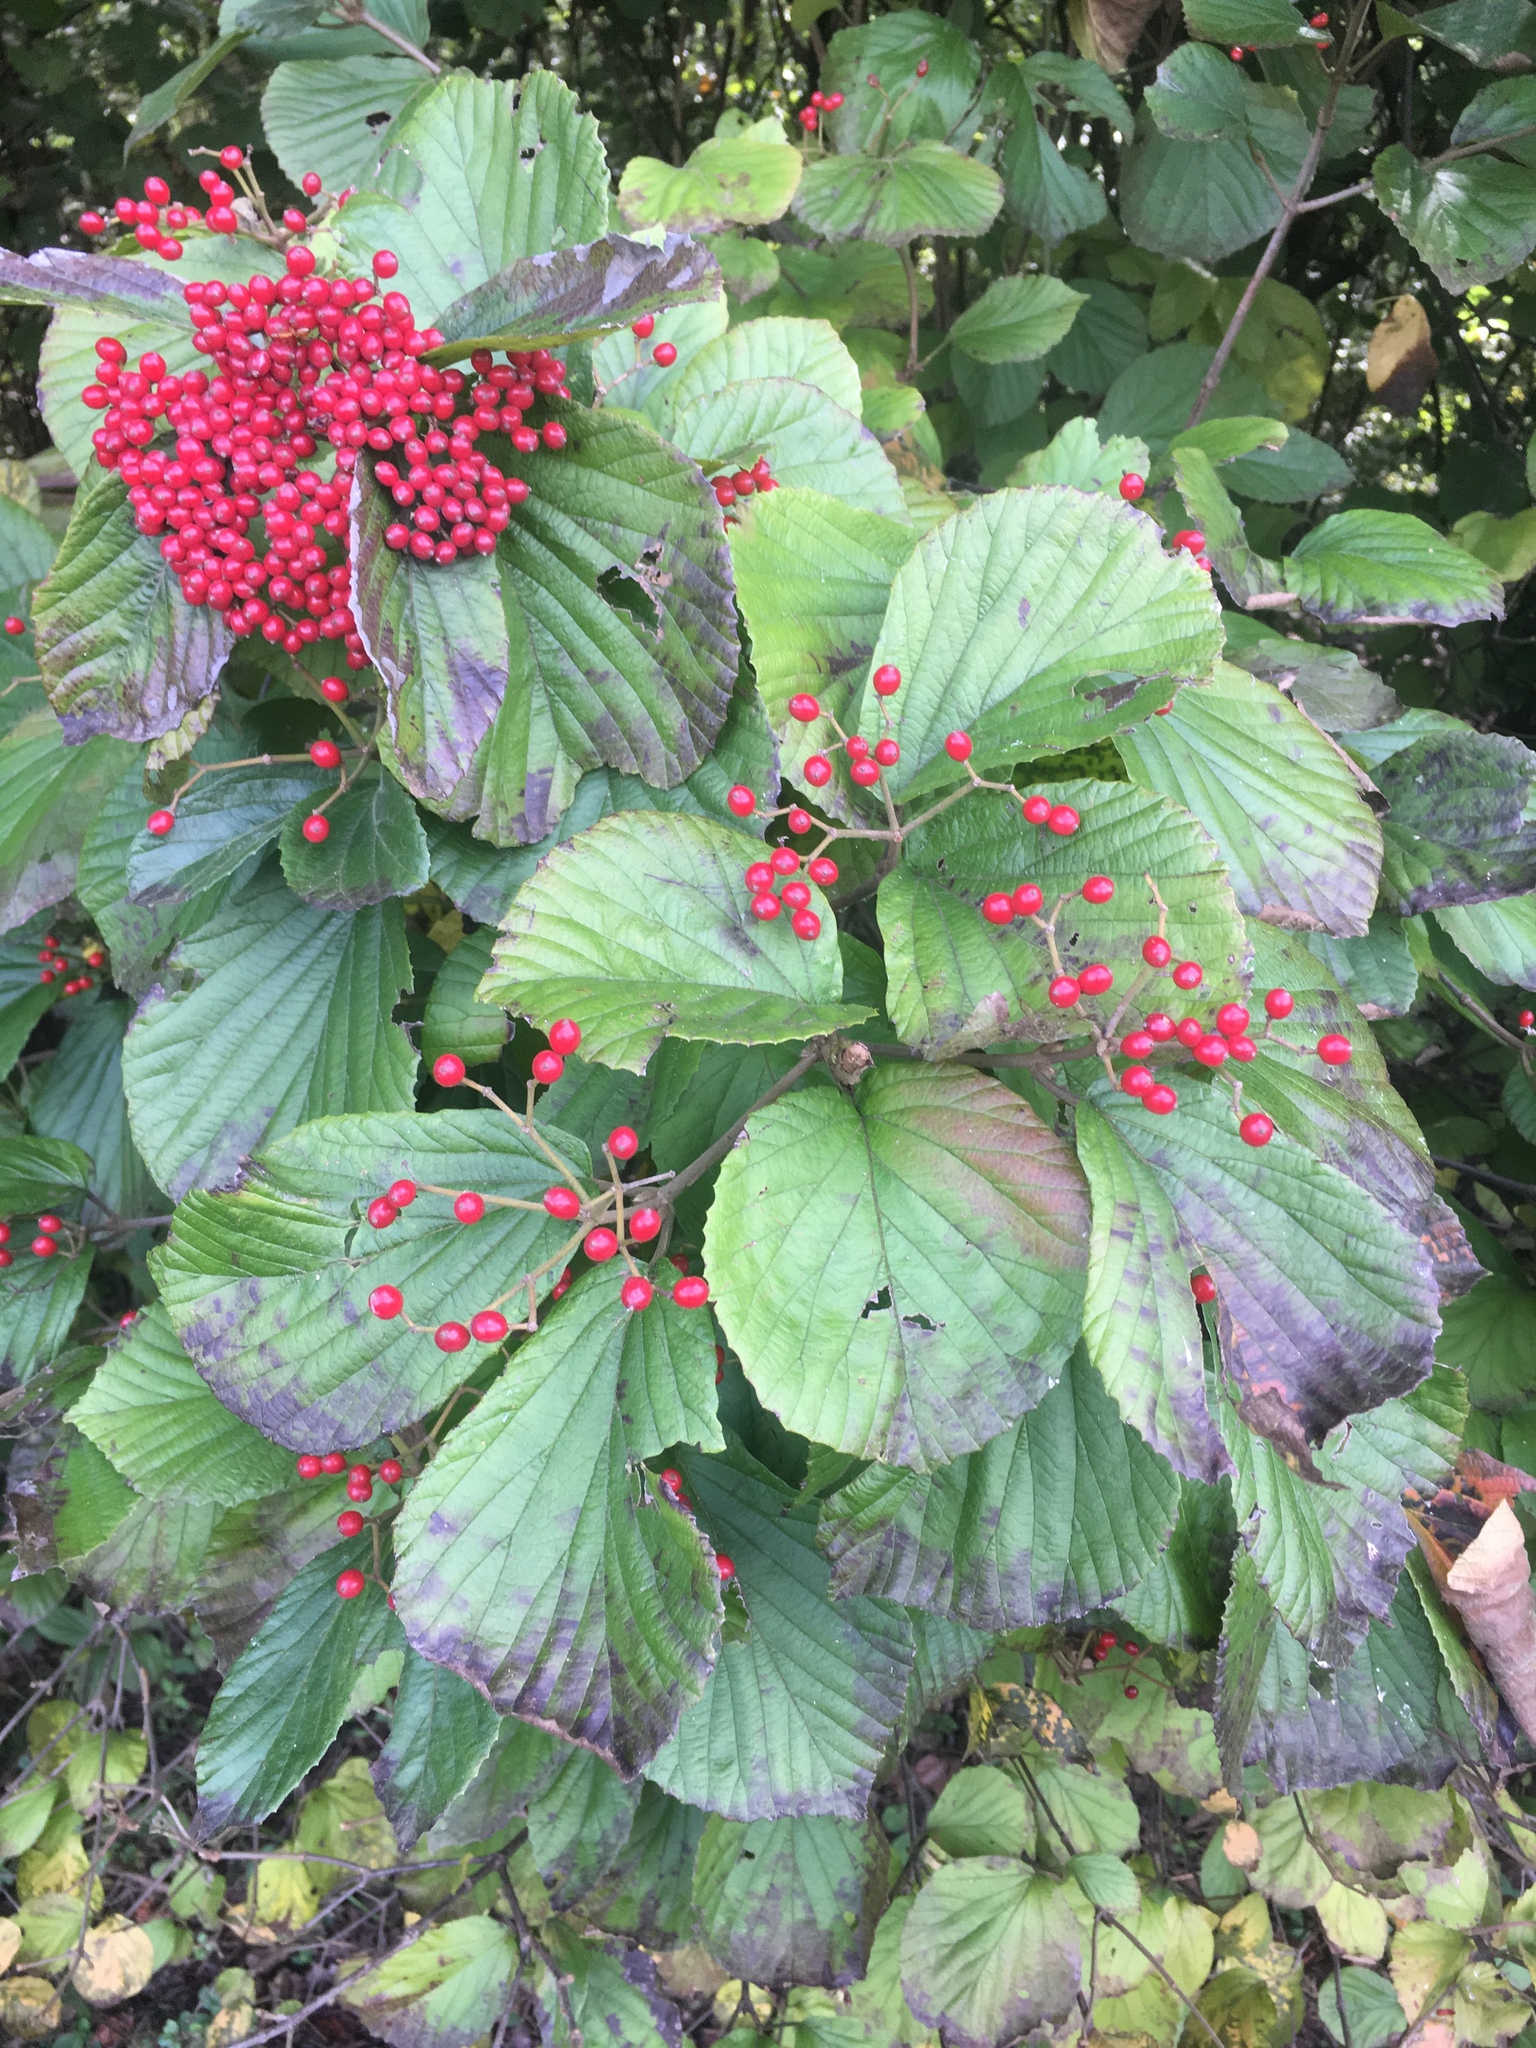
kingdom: Plantae
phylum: Tracheophyta
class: Magnoliopsida
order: Dipsacales
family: Viburnaceae
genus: Viburnum
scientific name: Viburnum dilatatum
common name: Linden arrowwood
